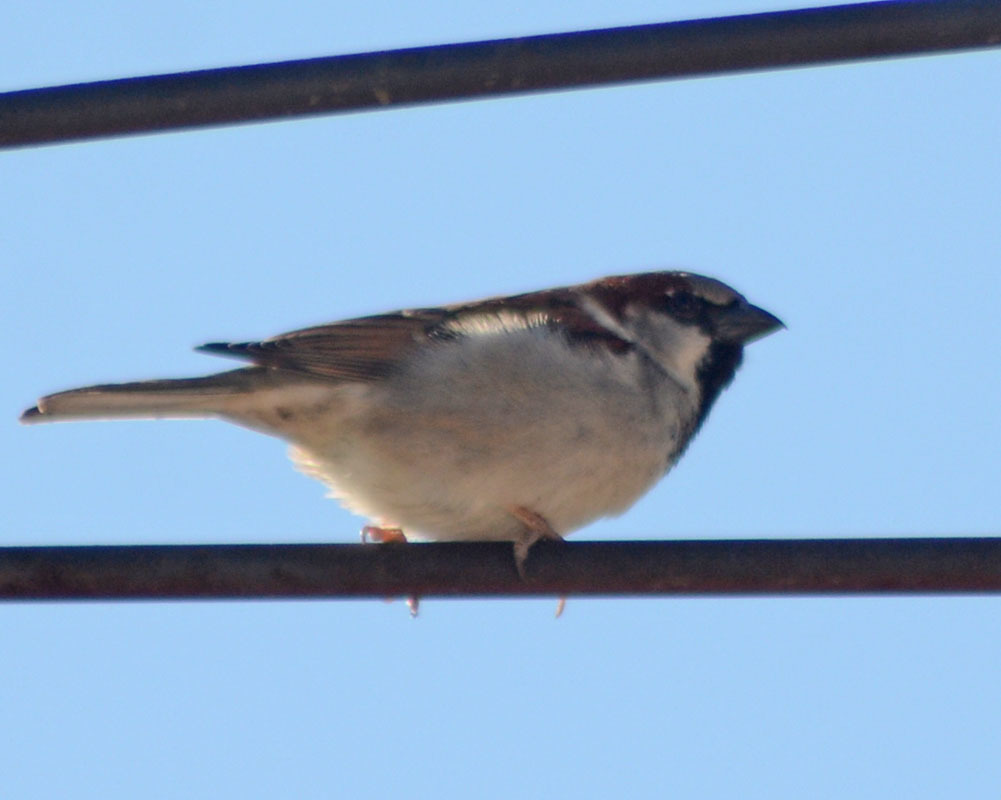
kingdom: Animalia
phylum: Chordata
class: Aves
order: Passeriformes
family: Passeridae
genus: Passer
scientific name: Passer domesticus
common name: House sparrow
